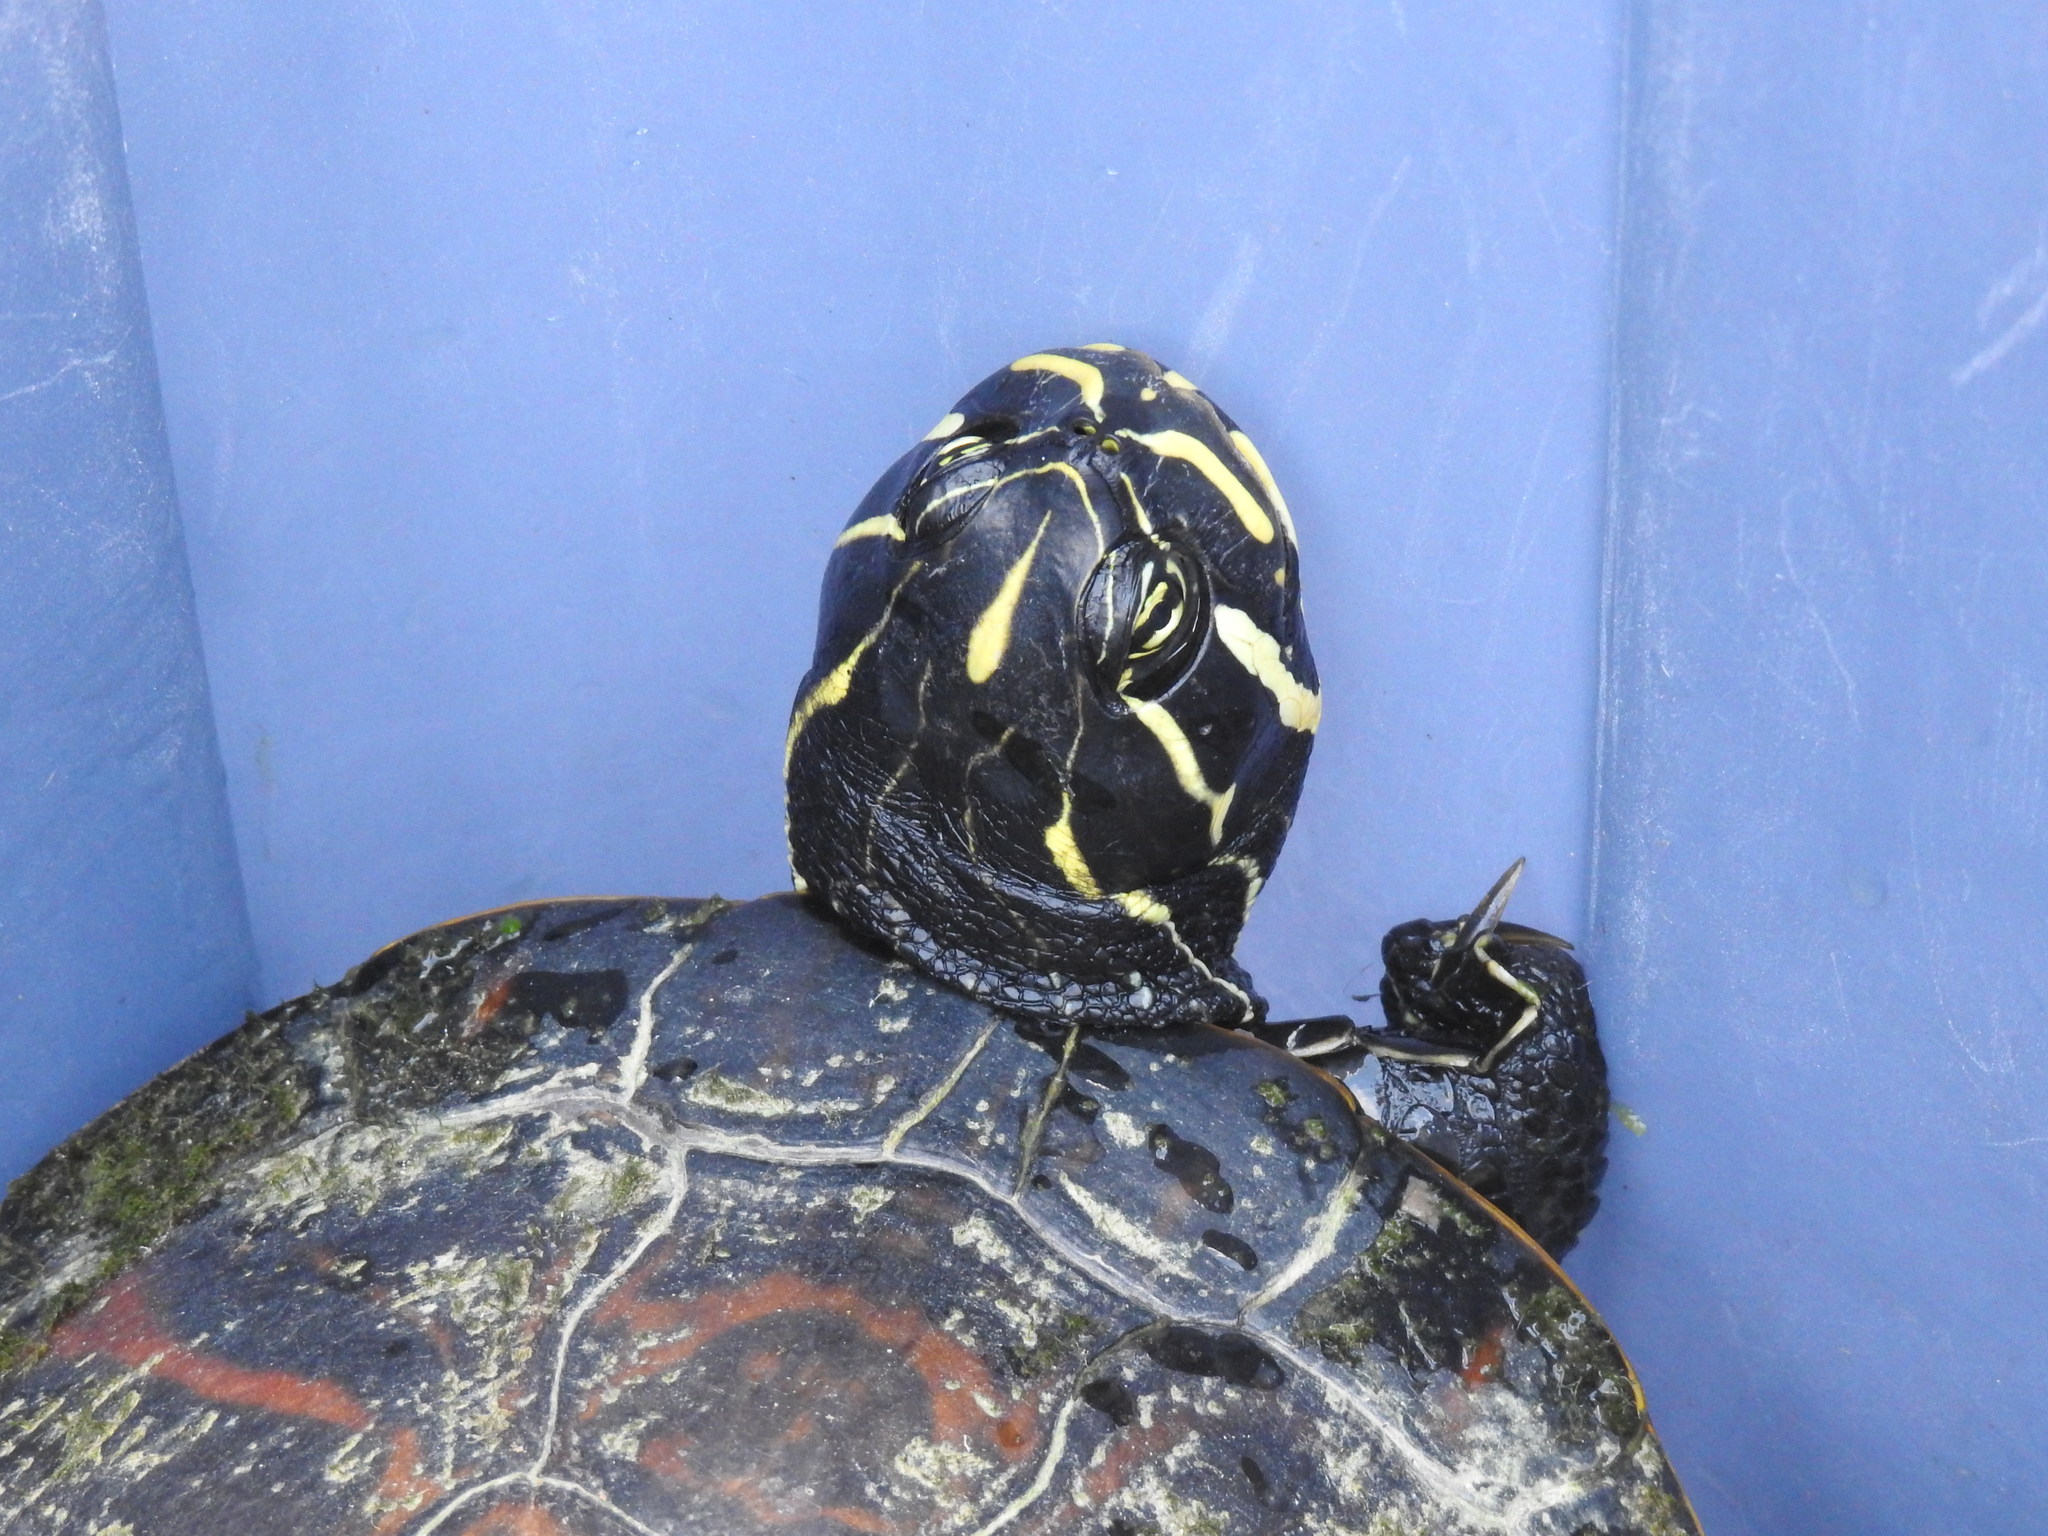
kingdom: Animalia
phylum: Chordata
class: Testudines
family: Emydidae
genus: Pseudemys
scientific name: Pseudemys nelsoni
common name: Florida red-bellied turtle
